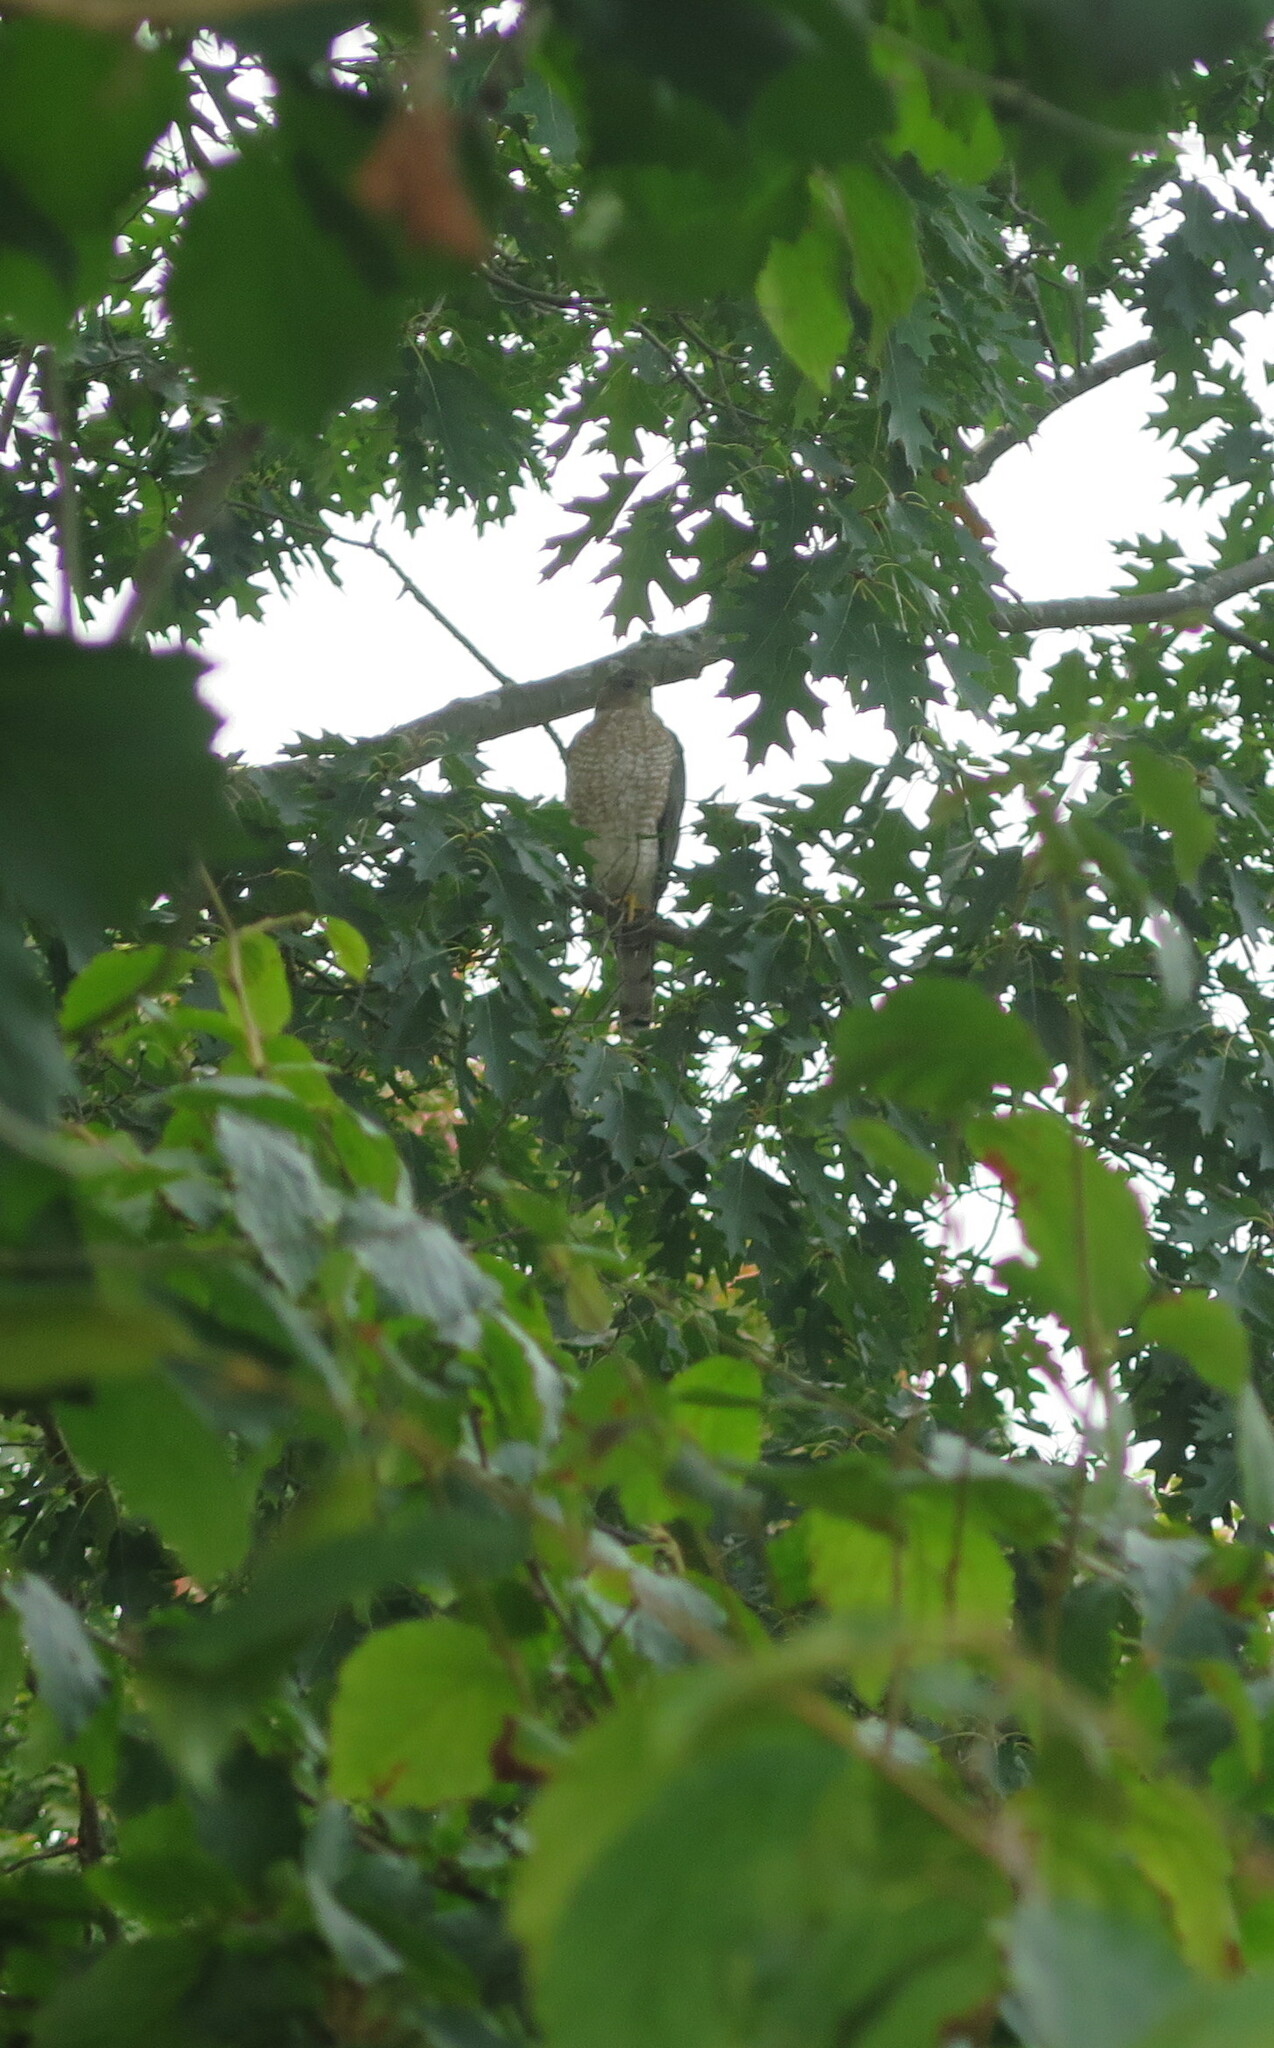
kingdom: Animalia
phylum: Chordata
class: Aves
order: Accipitriformes
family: Accipitridae
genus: Accipiter
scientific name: Accipiter cooperii
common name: Cooper's hawk
